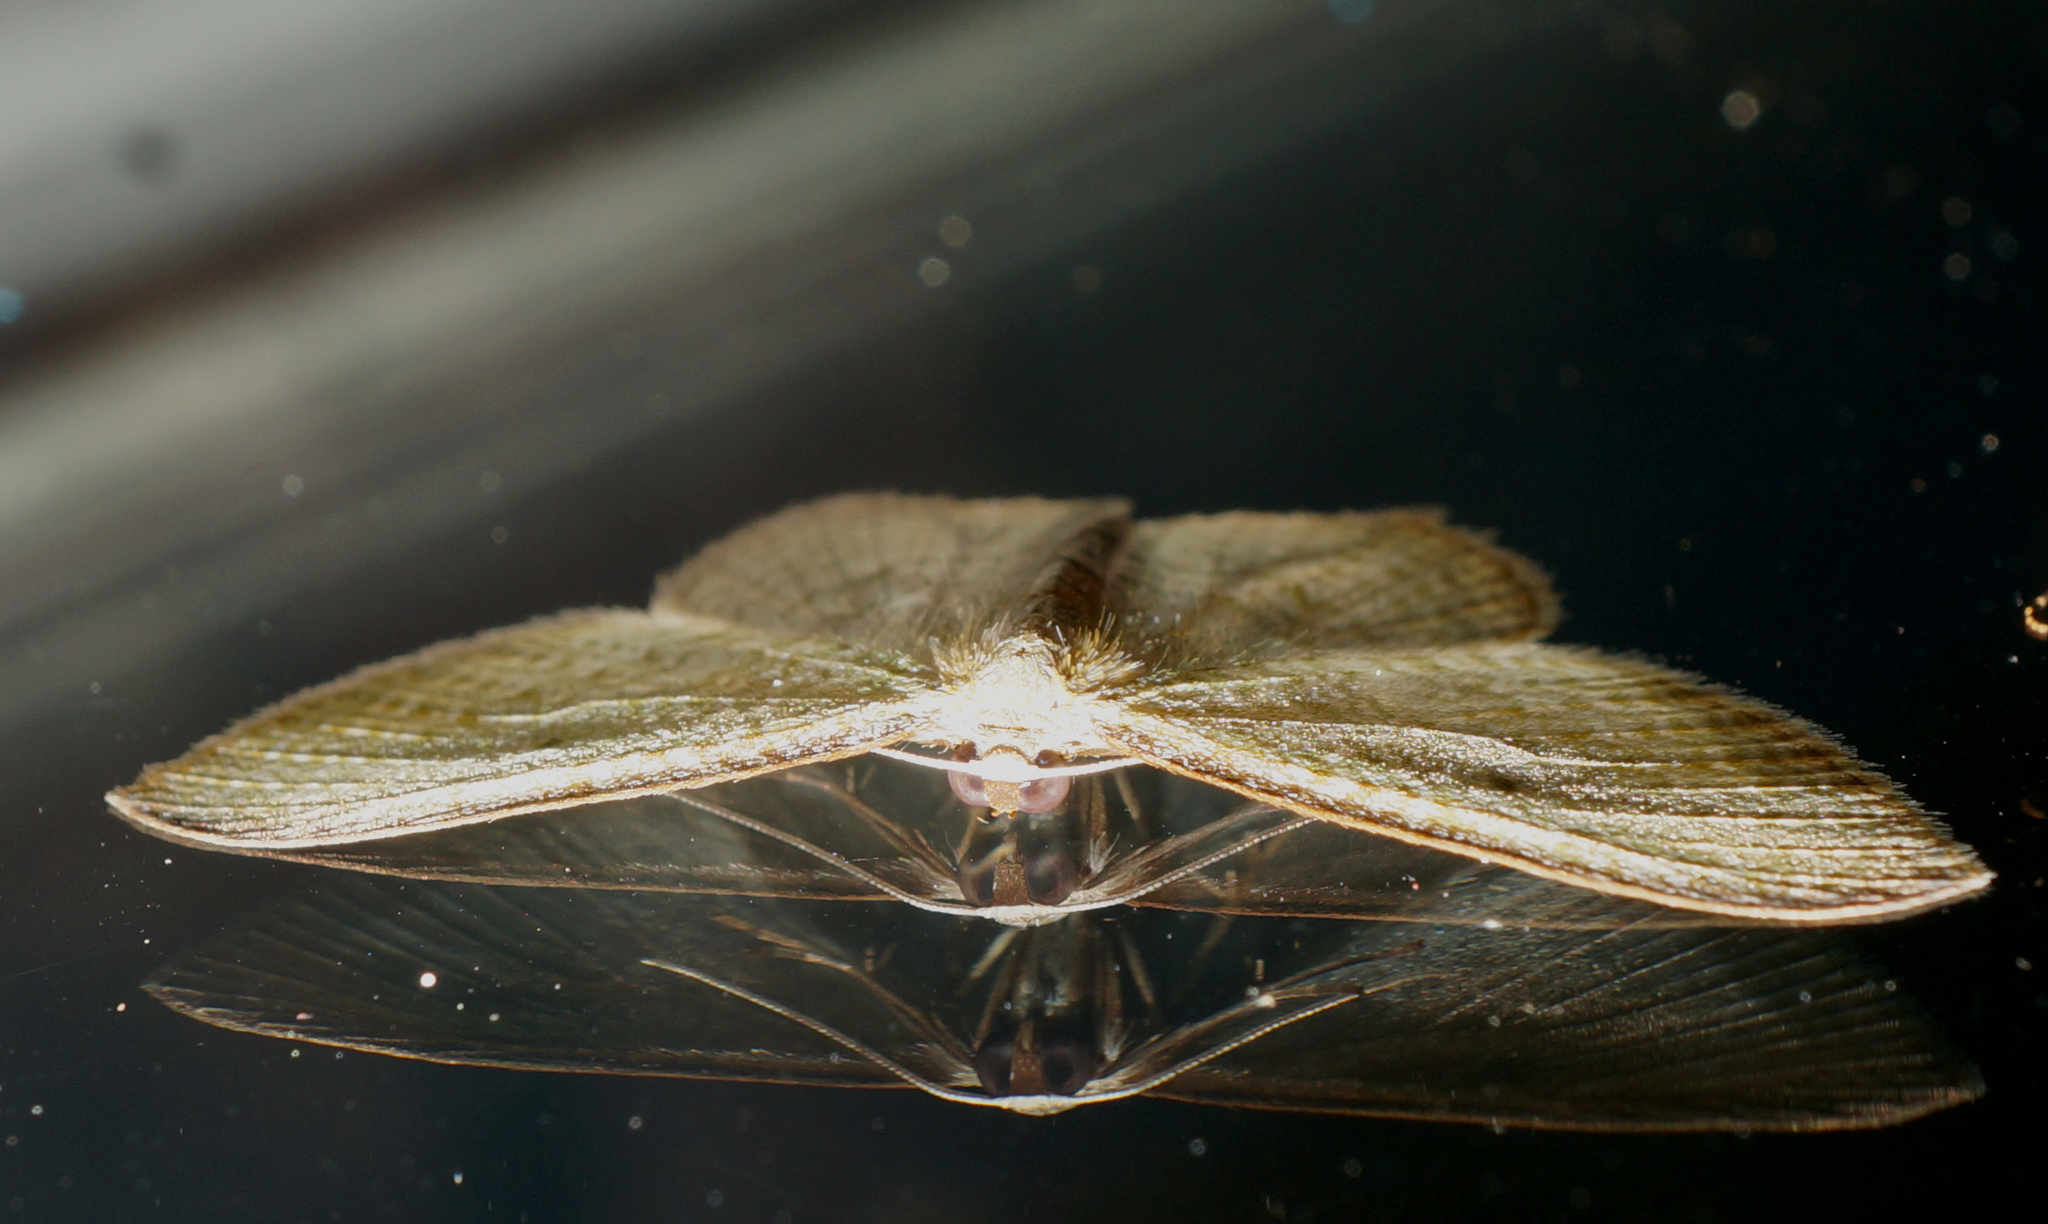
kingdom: Animalia
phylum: Arthropoda
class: Insecta
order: Lepidoptera
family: Geometridae
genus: Poecilasthena
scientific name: Poecilasthena pulchraria
